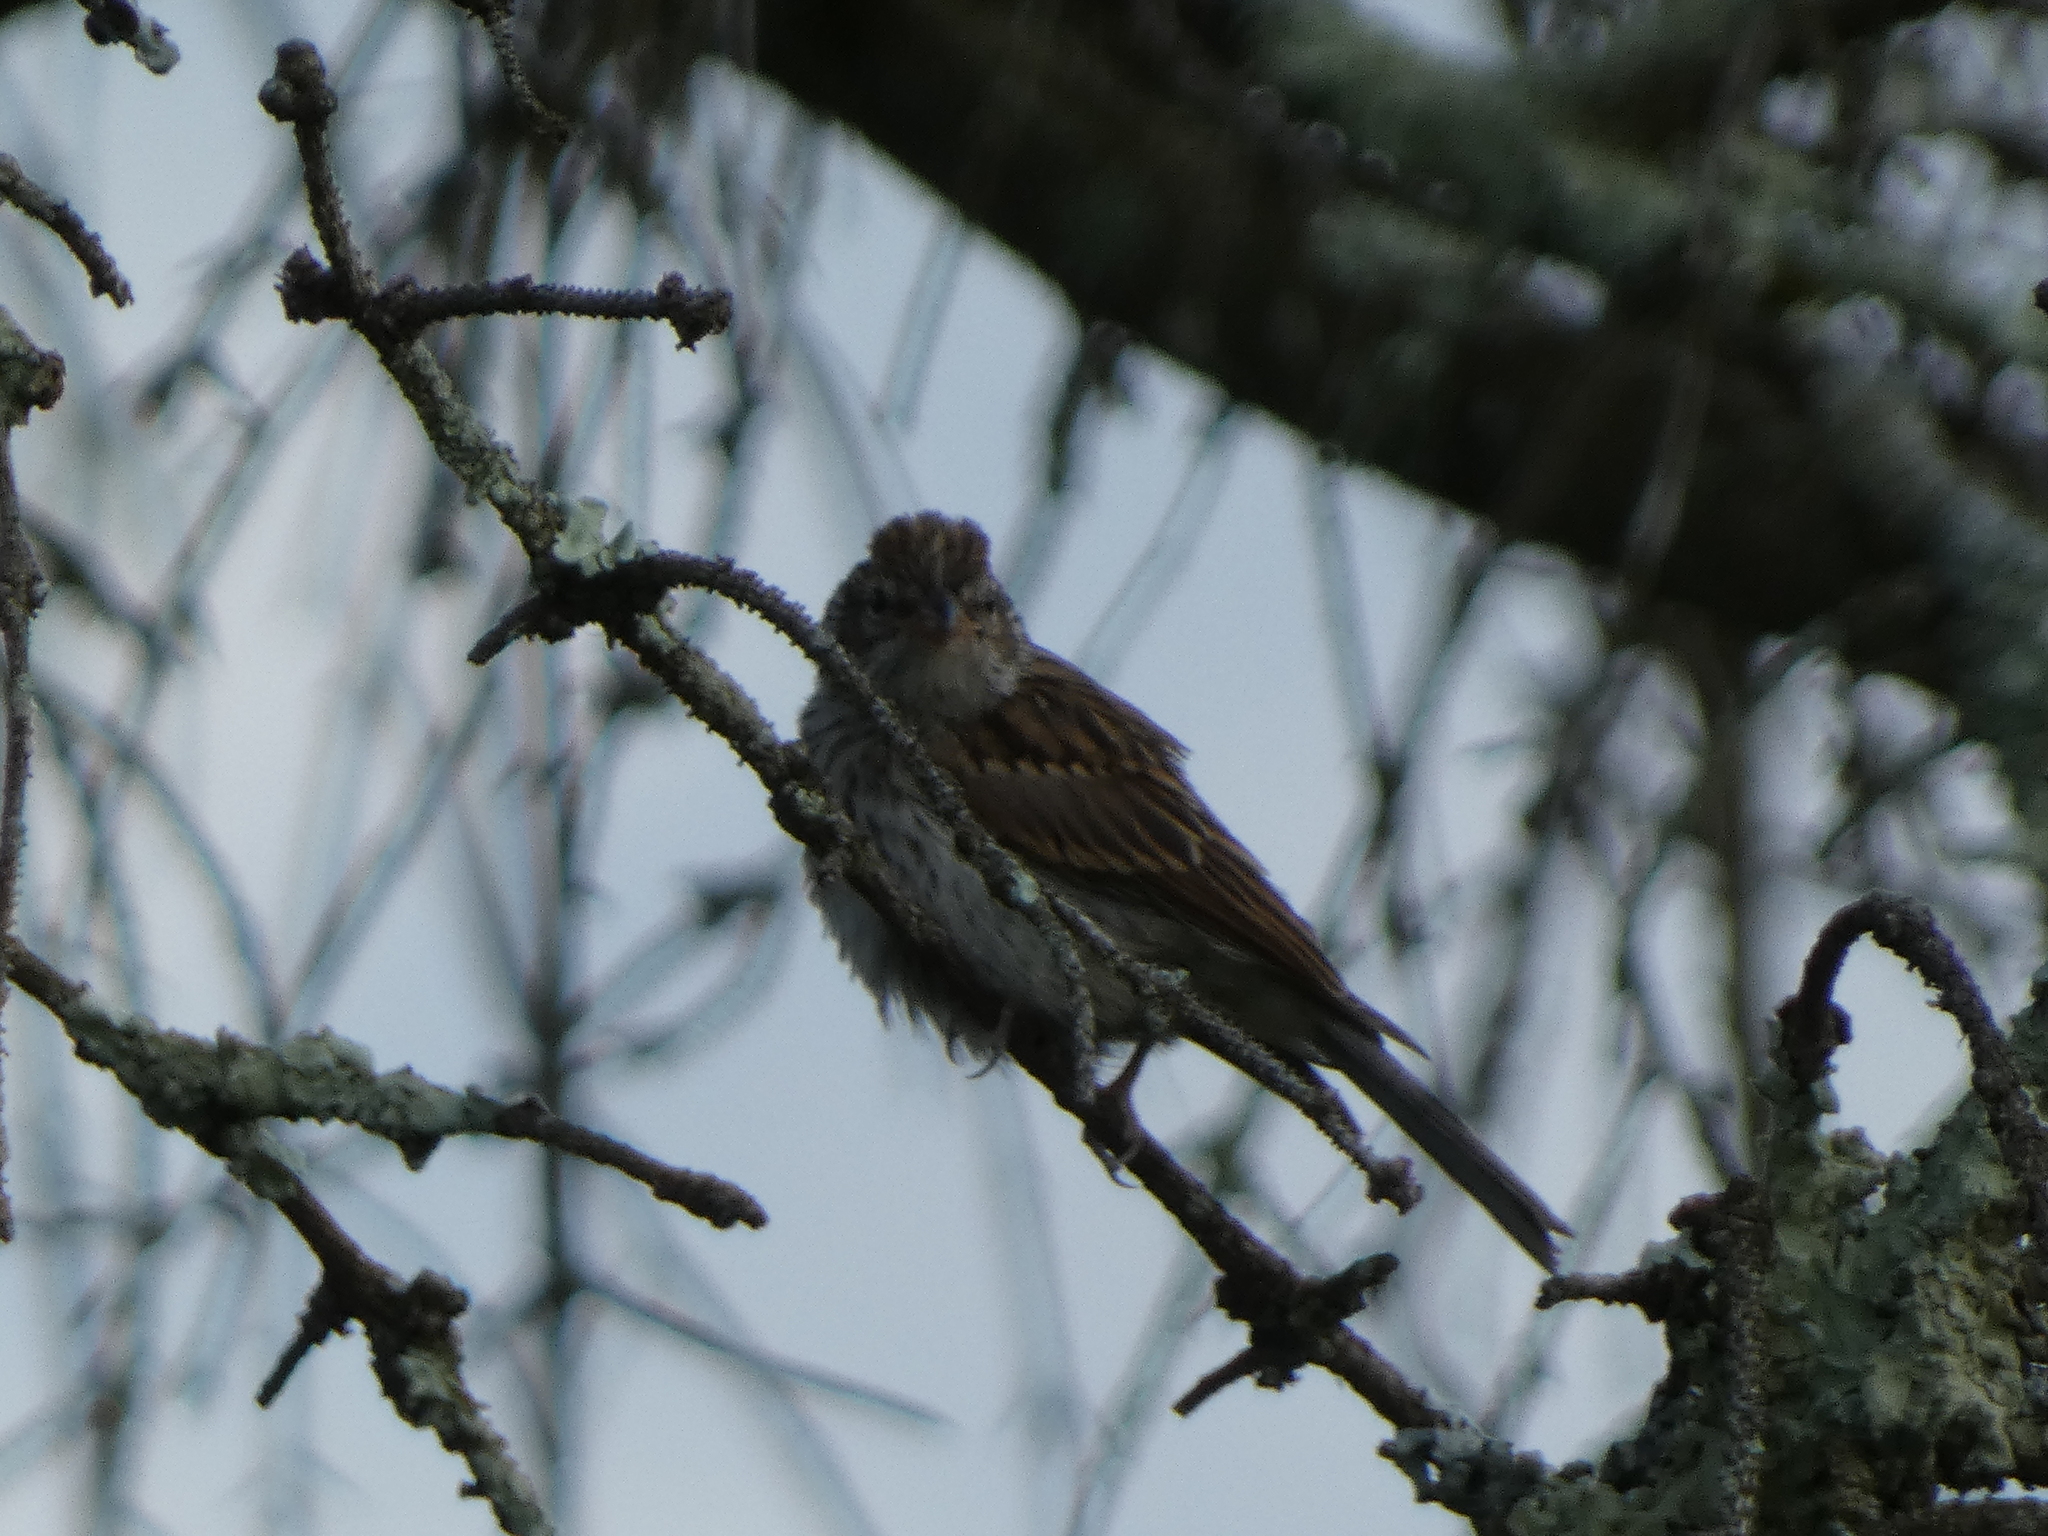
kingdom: Animalia
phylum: Chordata
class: Aves
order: Passeriformes
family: Passerellidae
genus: Spizella
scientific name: Spizella passerina
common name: Chipping sparrow
